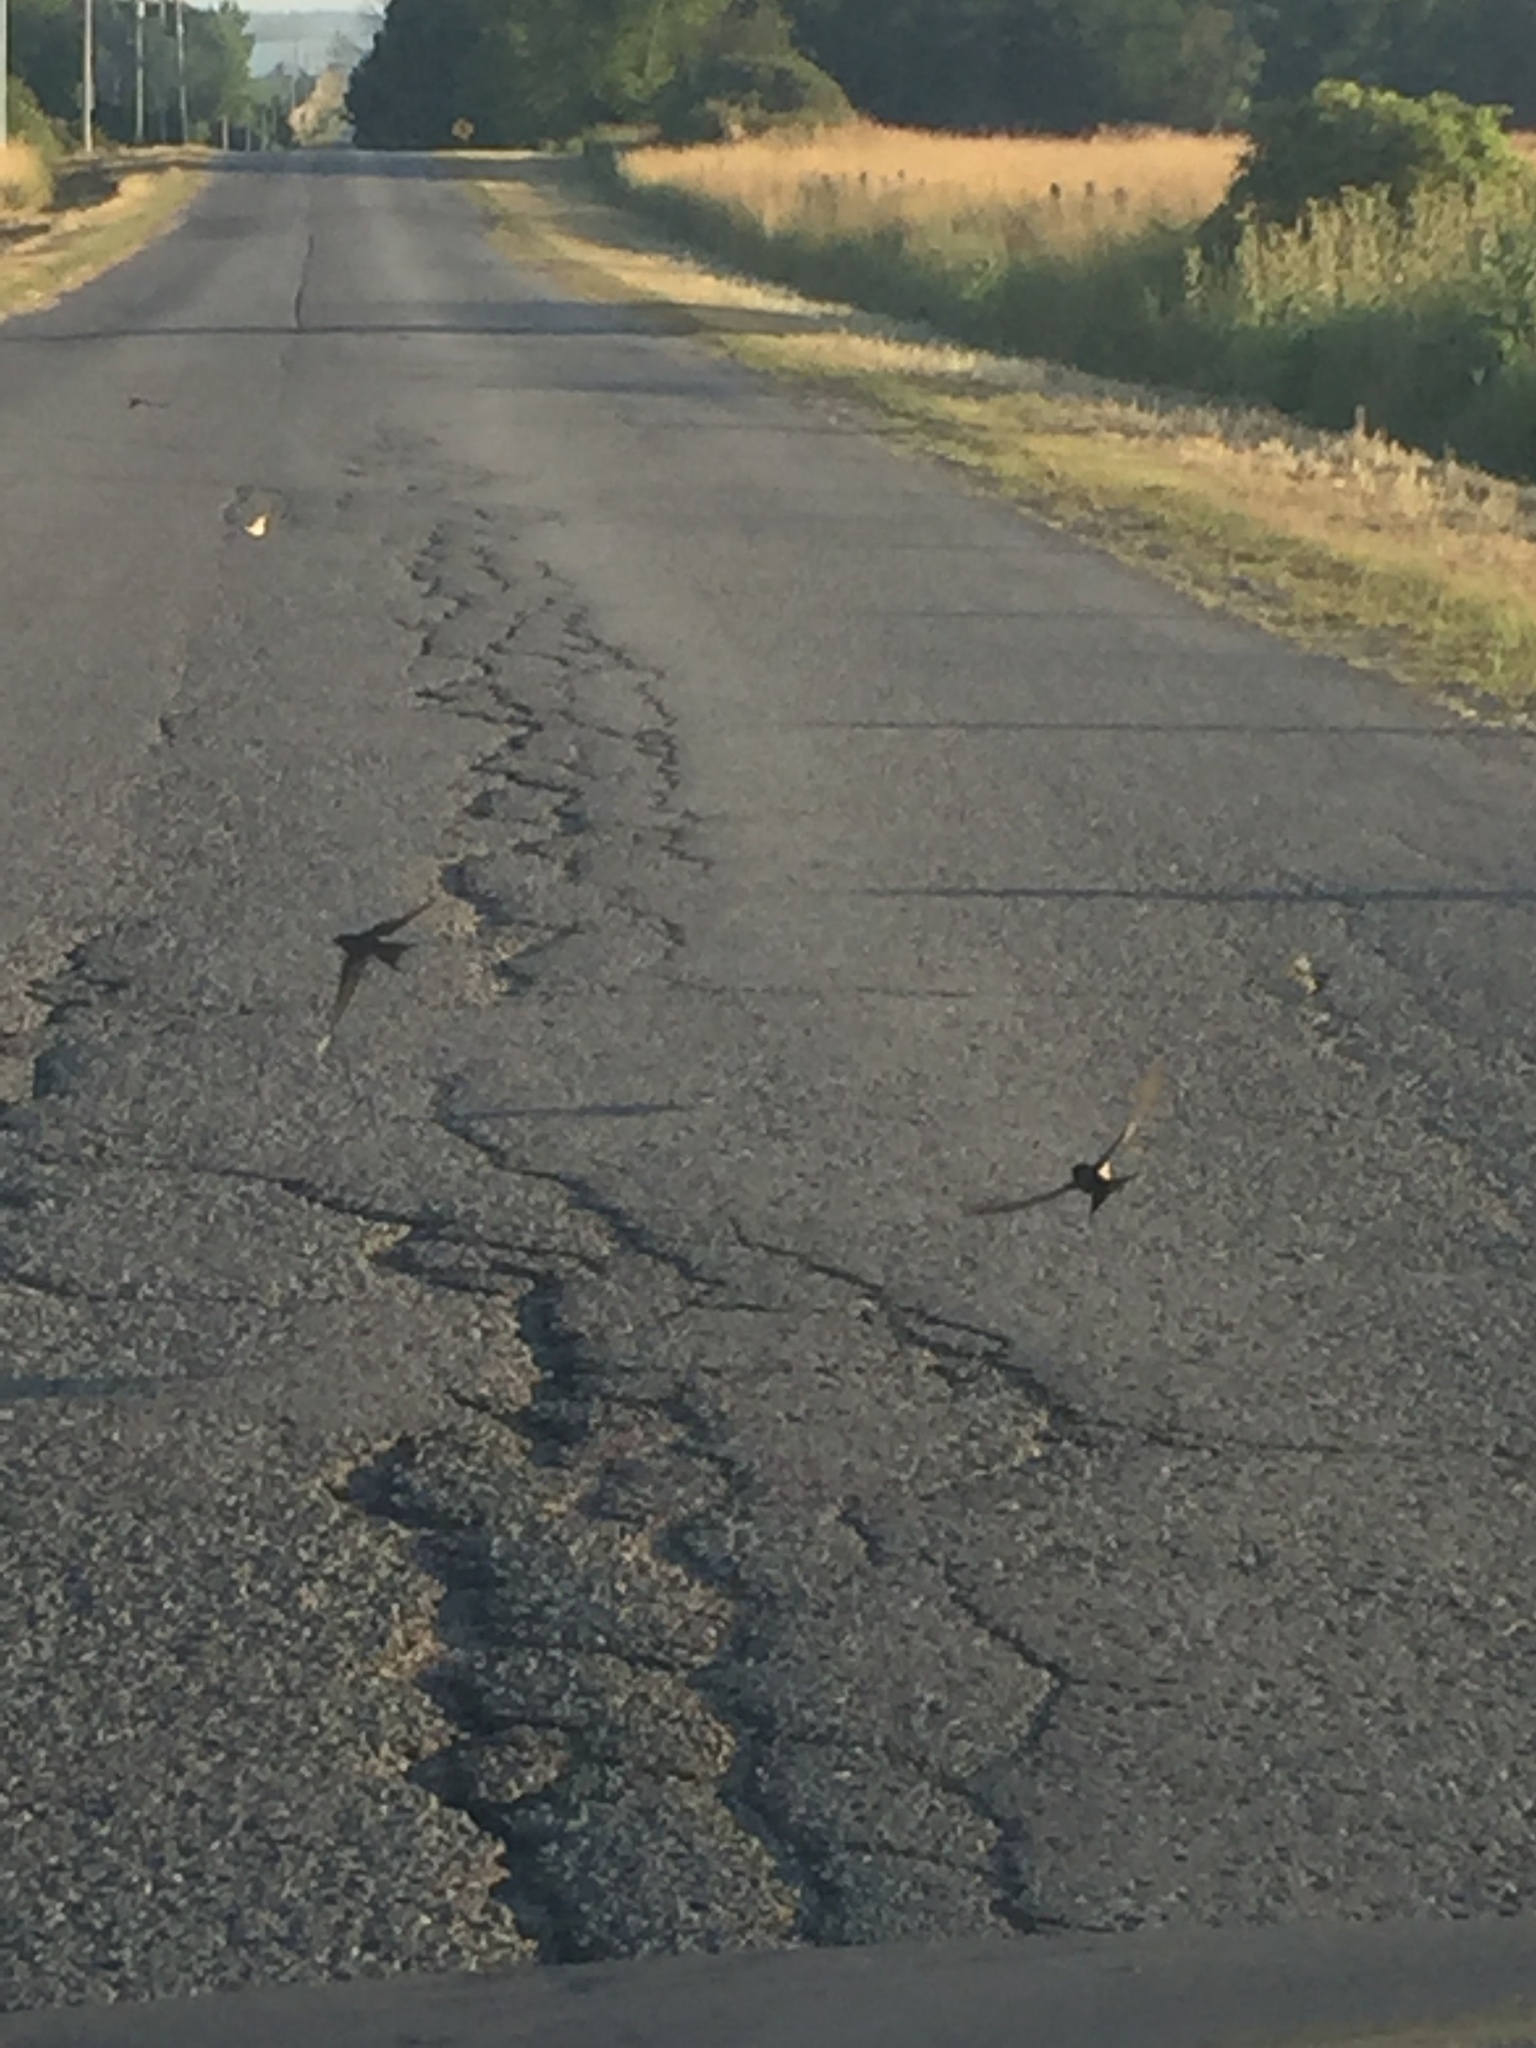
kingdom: Animalia
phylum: Chordata
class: Aves
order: Passeriformes
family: Hirundinidae
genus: Hirundo
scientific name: Hirundo rustica
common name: Barn swallow
